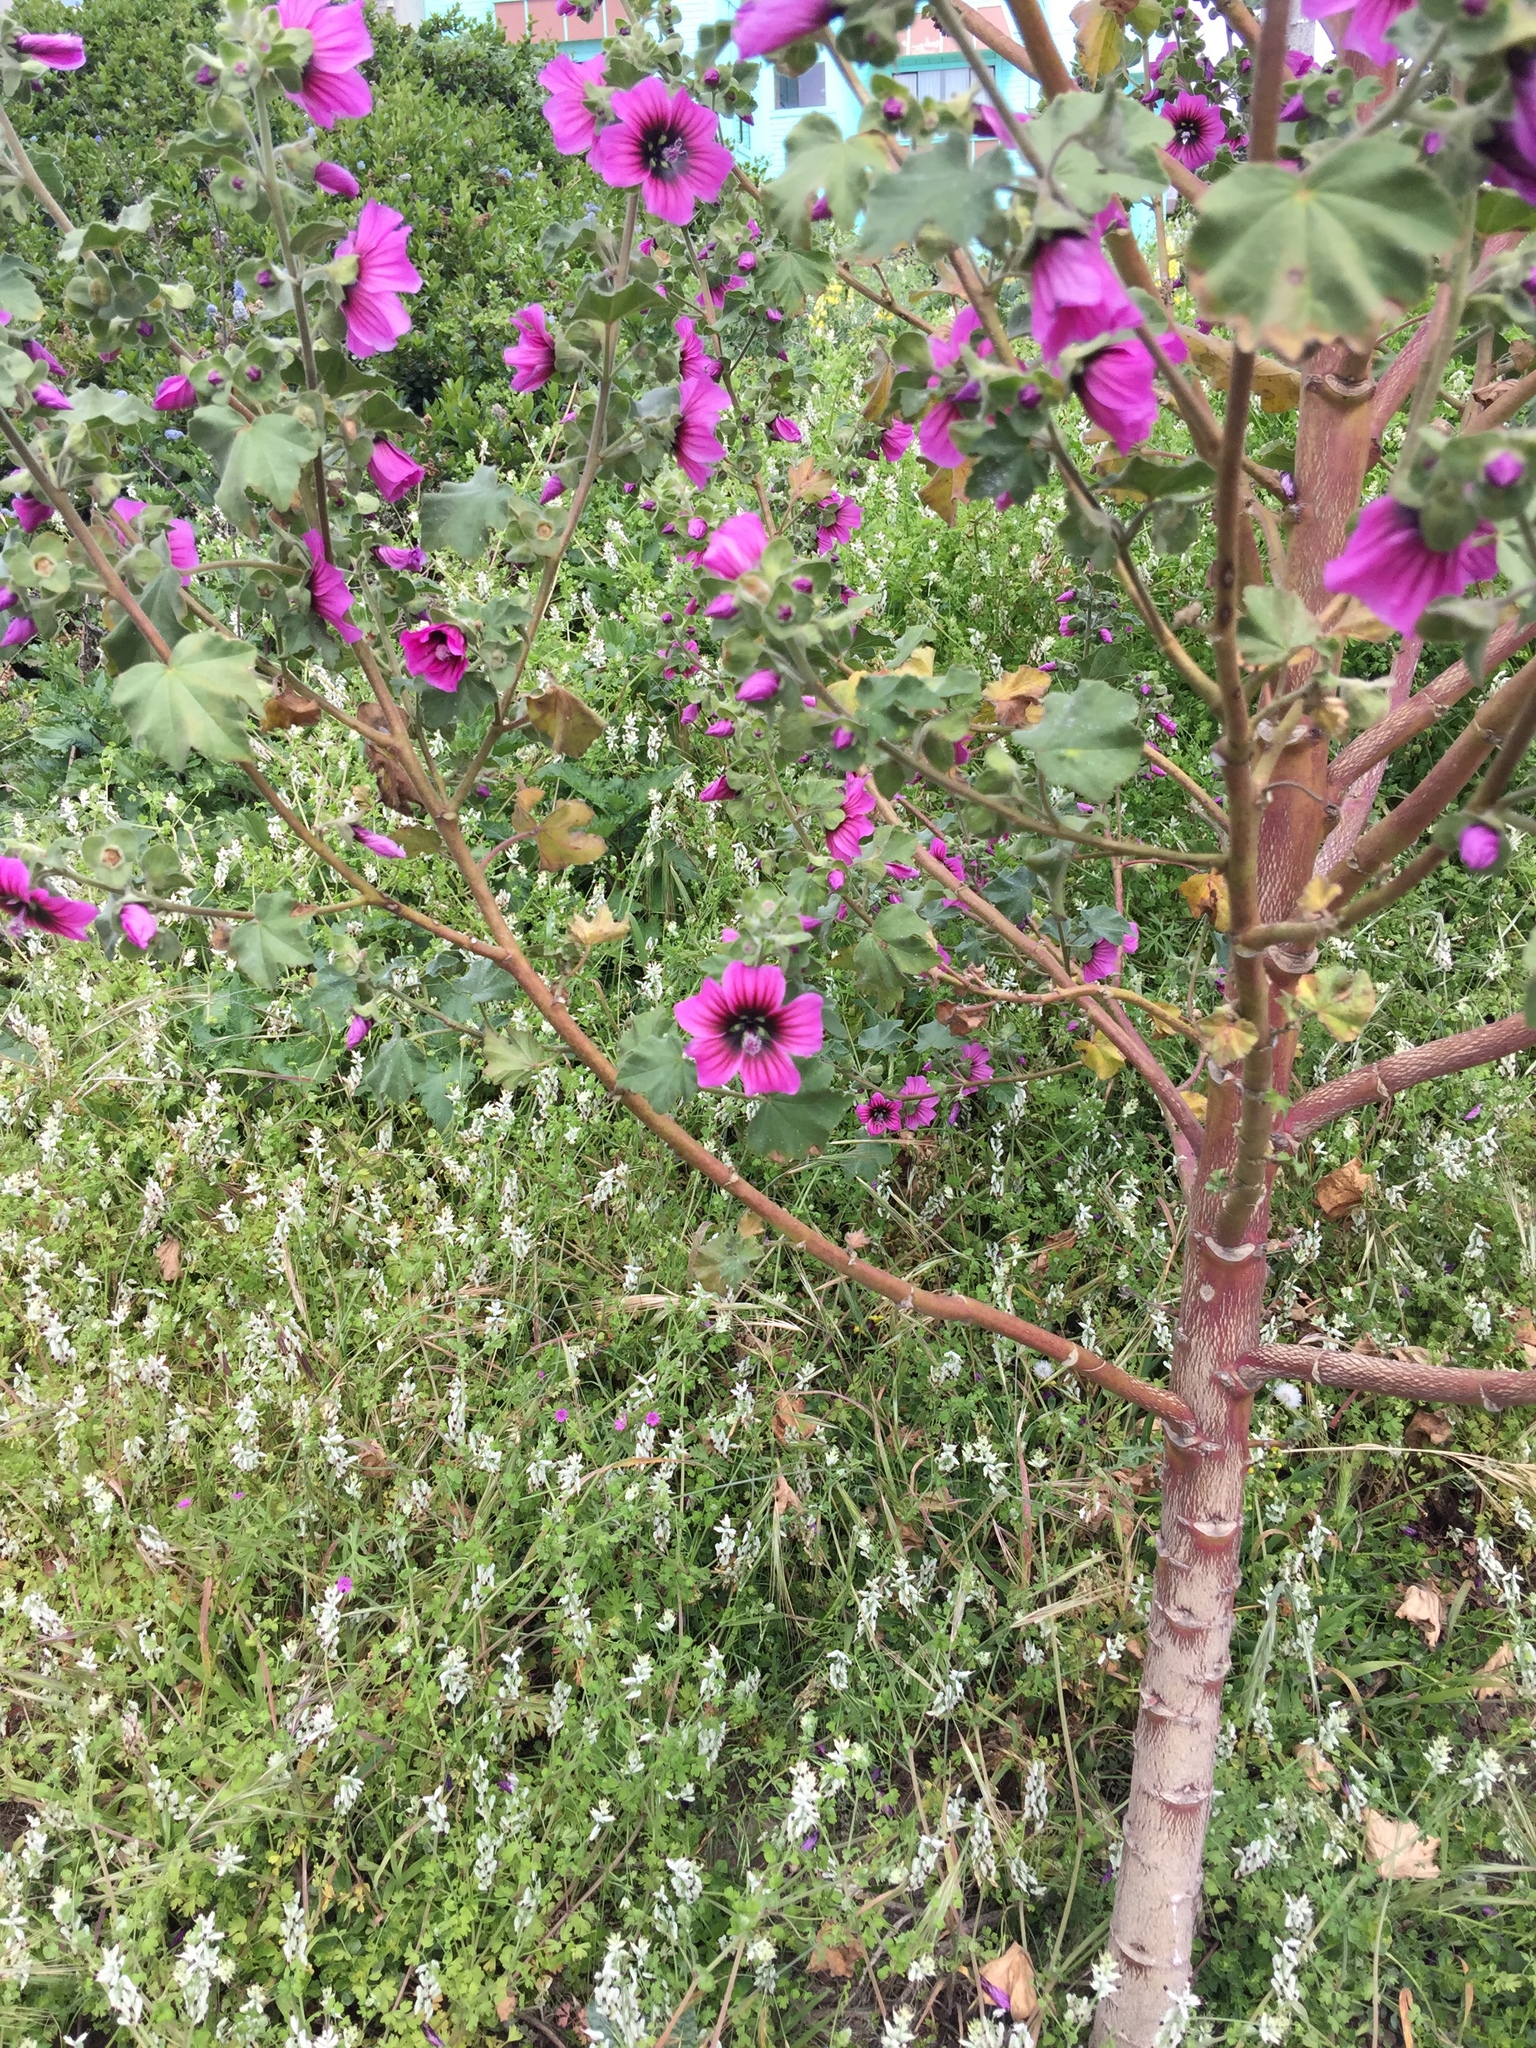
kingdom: Plantae
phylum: Tracheophyta
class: Magnoliopsida
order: Malvales
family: Malvaceae
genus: Malva
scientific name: Malva arborea
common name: Tree mallow
